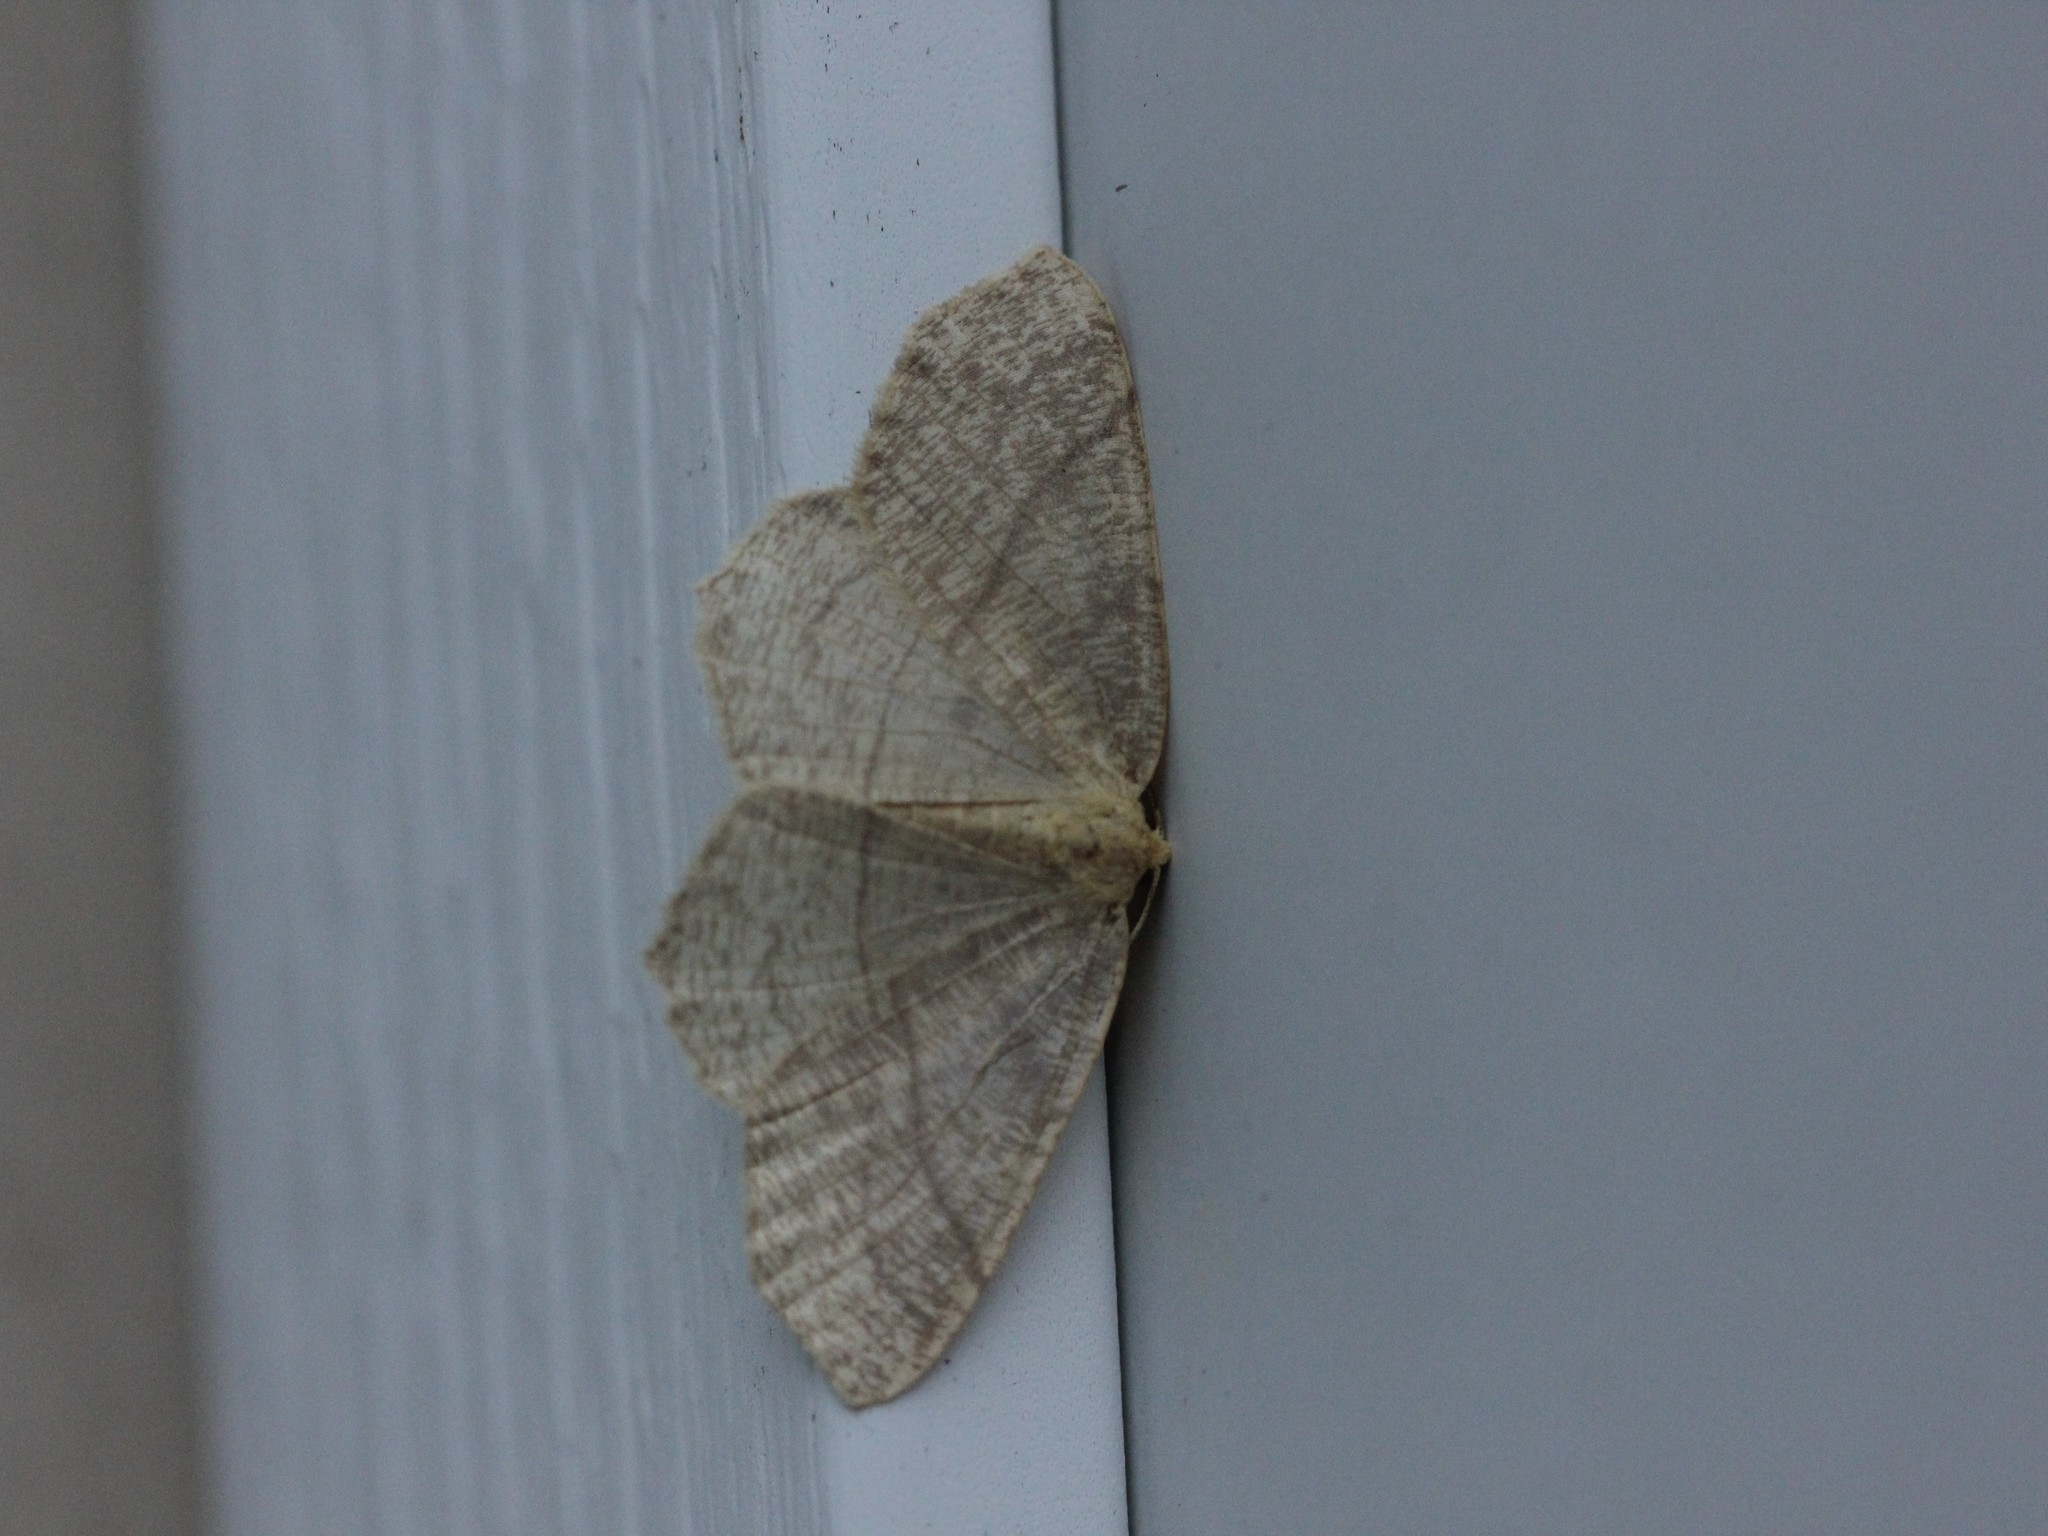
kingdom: Animalia
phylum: Arthropoda
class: Insecta
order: Lepidoptera
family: Geometridae
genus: Besma
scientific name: Besma endropiaria
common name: Straw besma
